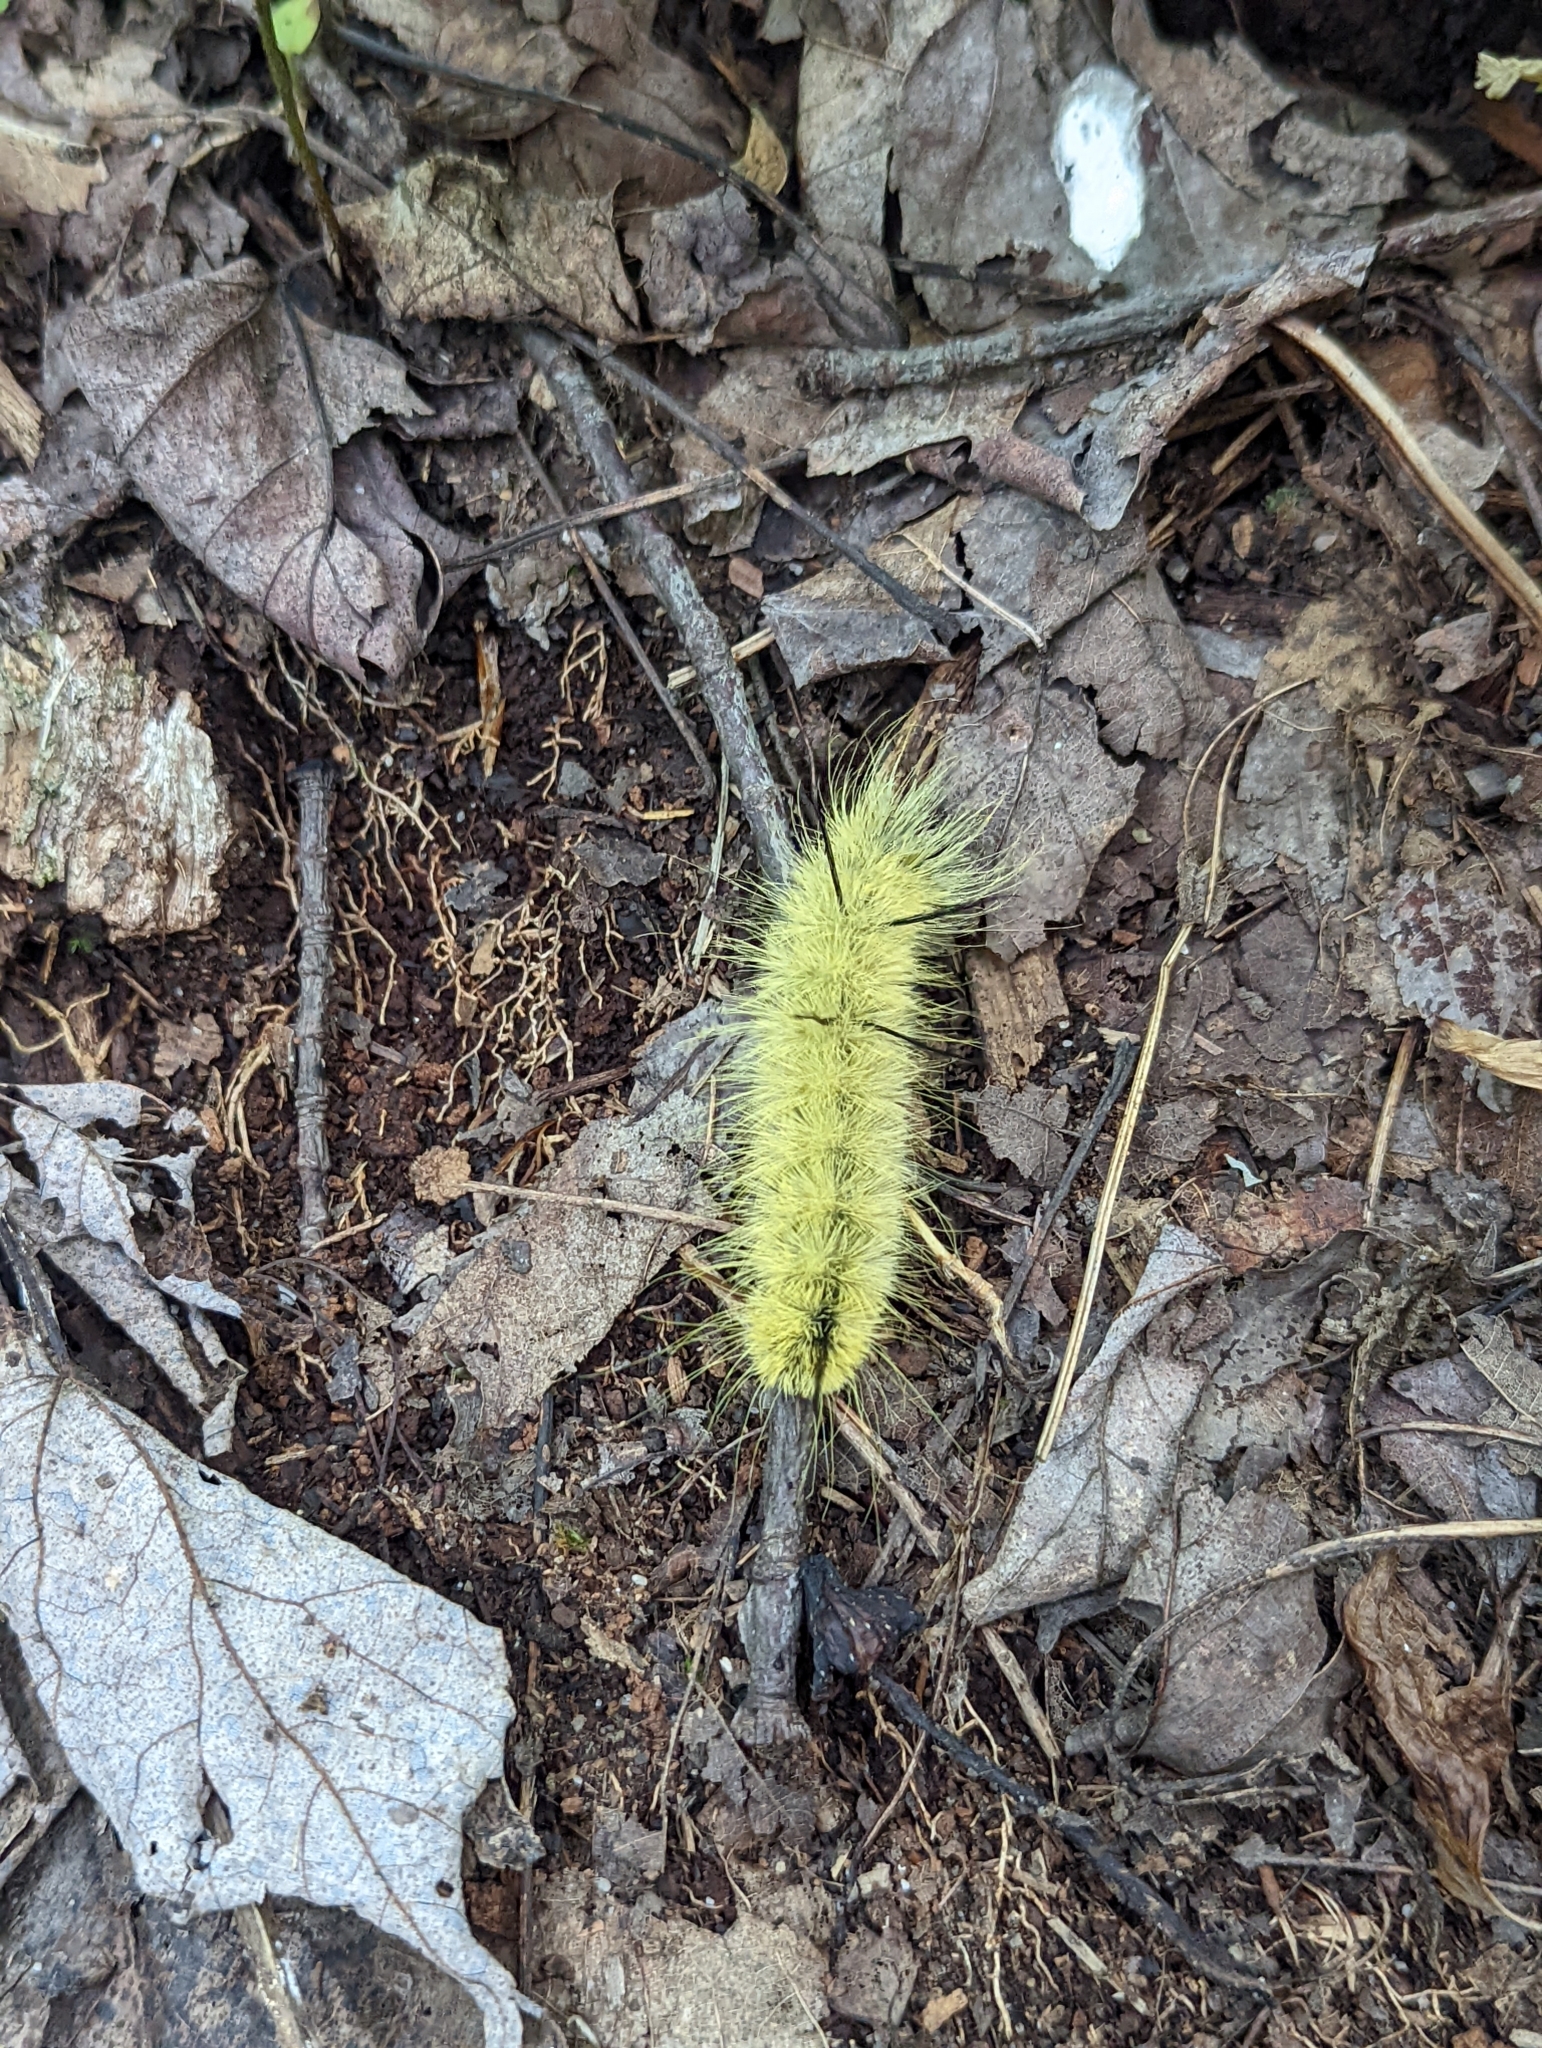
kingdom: Animalia
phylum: Arthropoda
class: Insecta
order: Lepidoptera
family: Noctuidae
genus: Acronicta
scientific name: Acronicta americana
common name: American dagger
